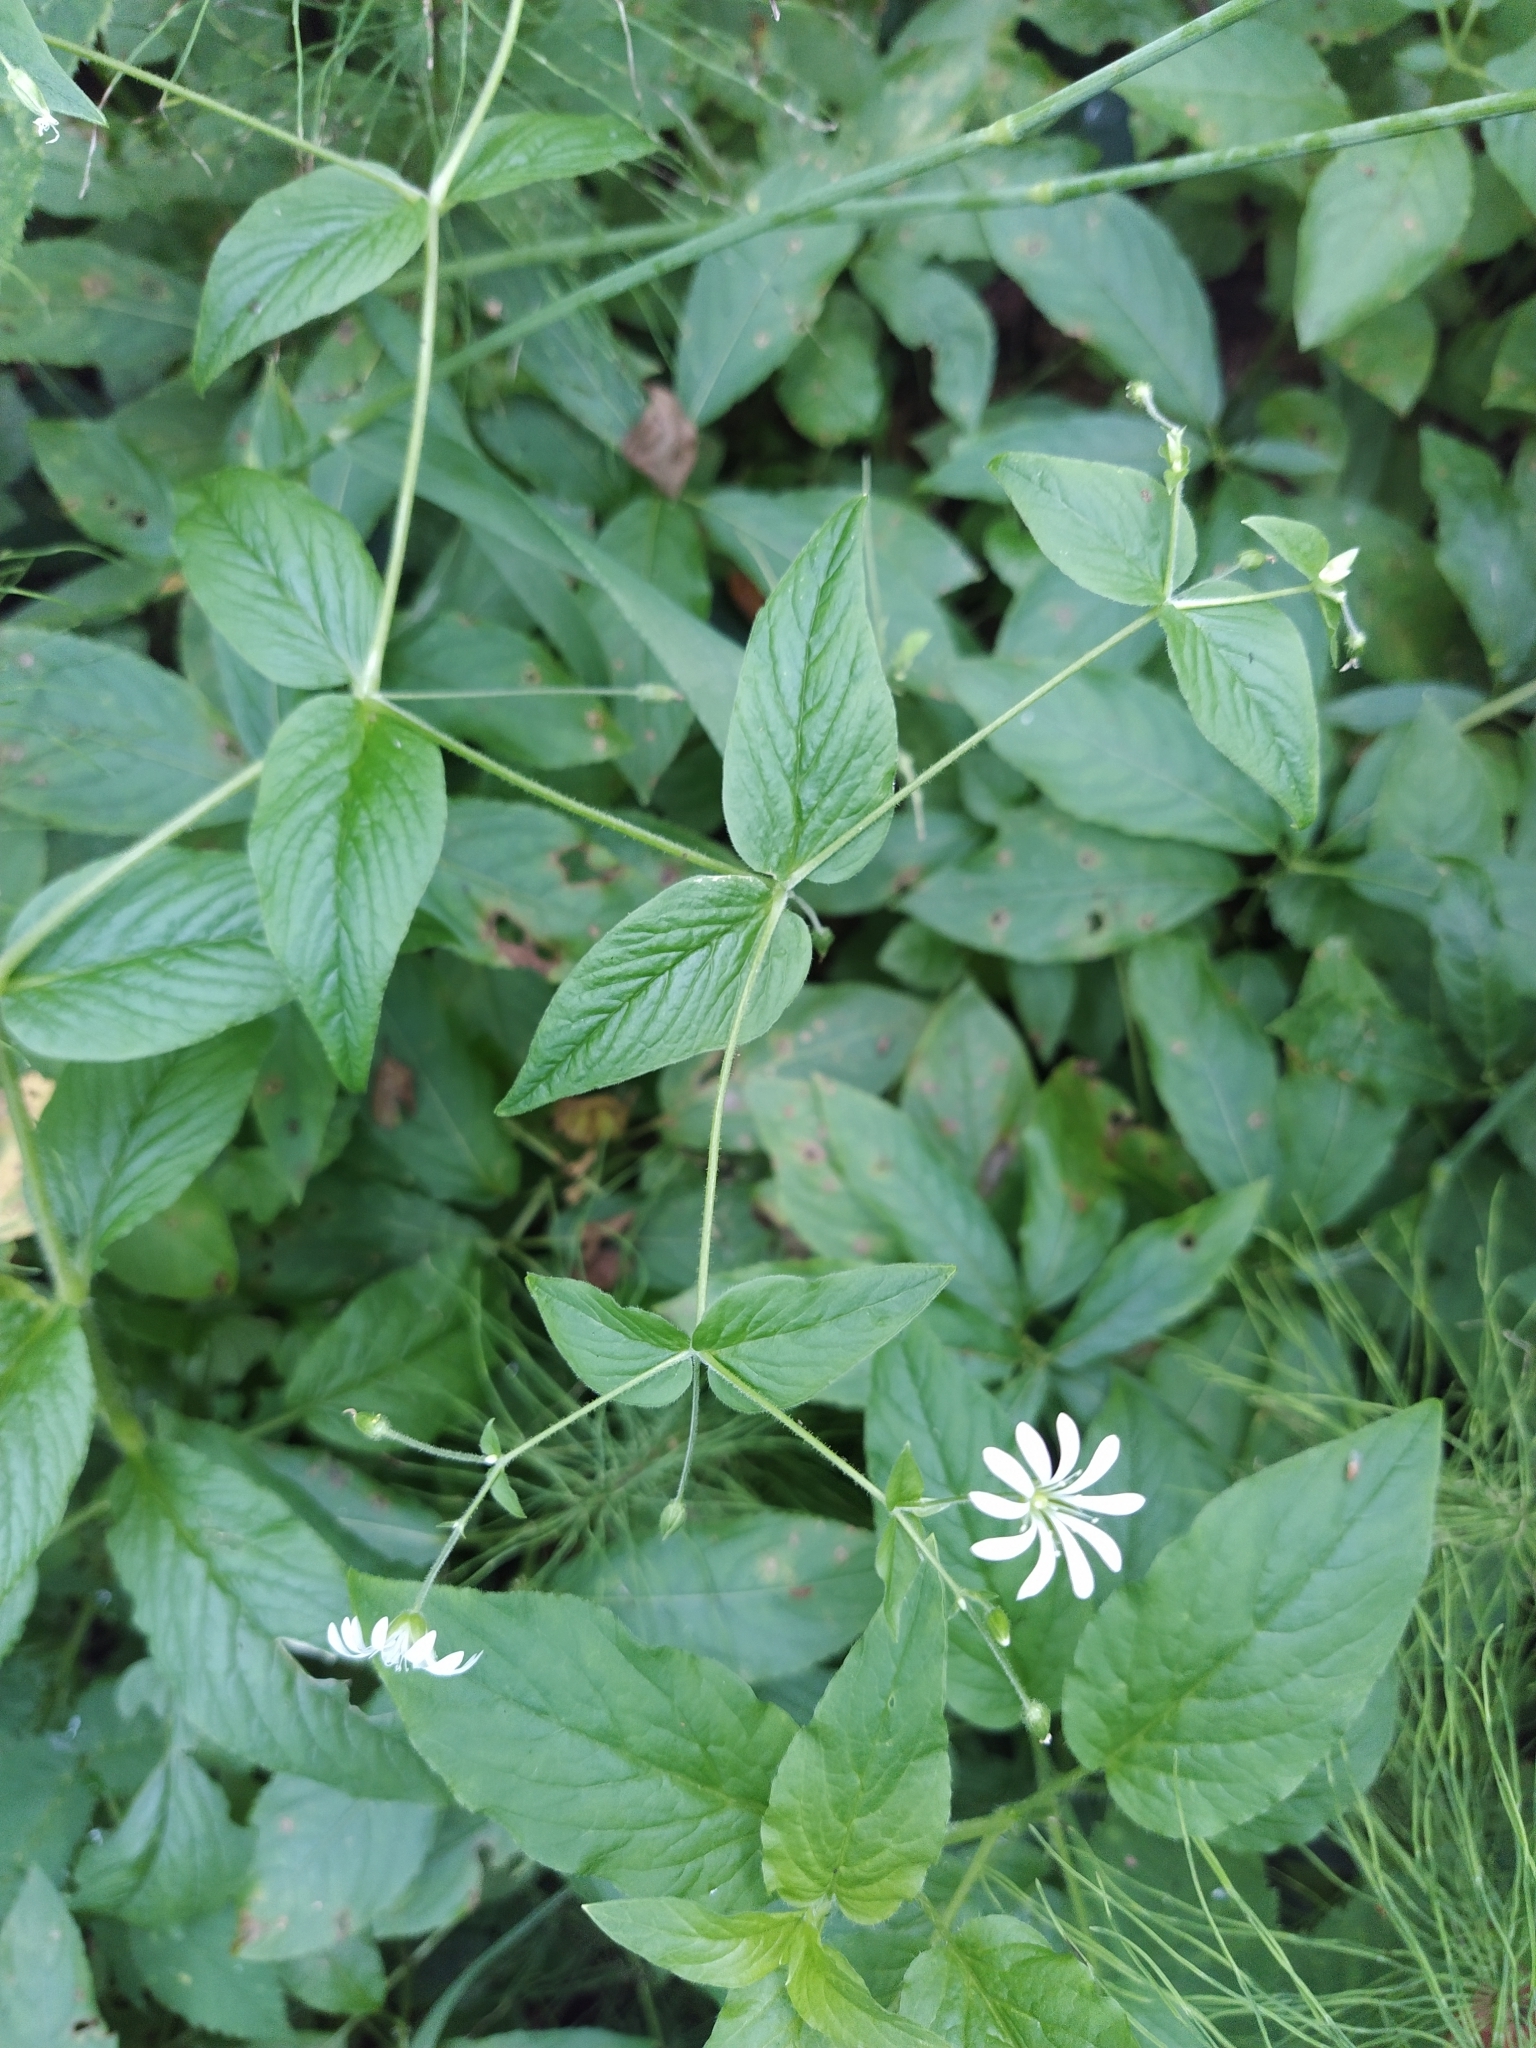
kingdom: Plantae
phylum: Tracheophyta
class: Magnoliopsida
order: Caryophyllales
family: Caryophyllaceae
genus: Stellaria
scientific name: Stellaria nemorum
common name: Wood stitchwort
